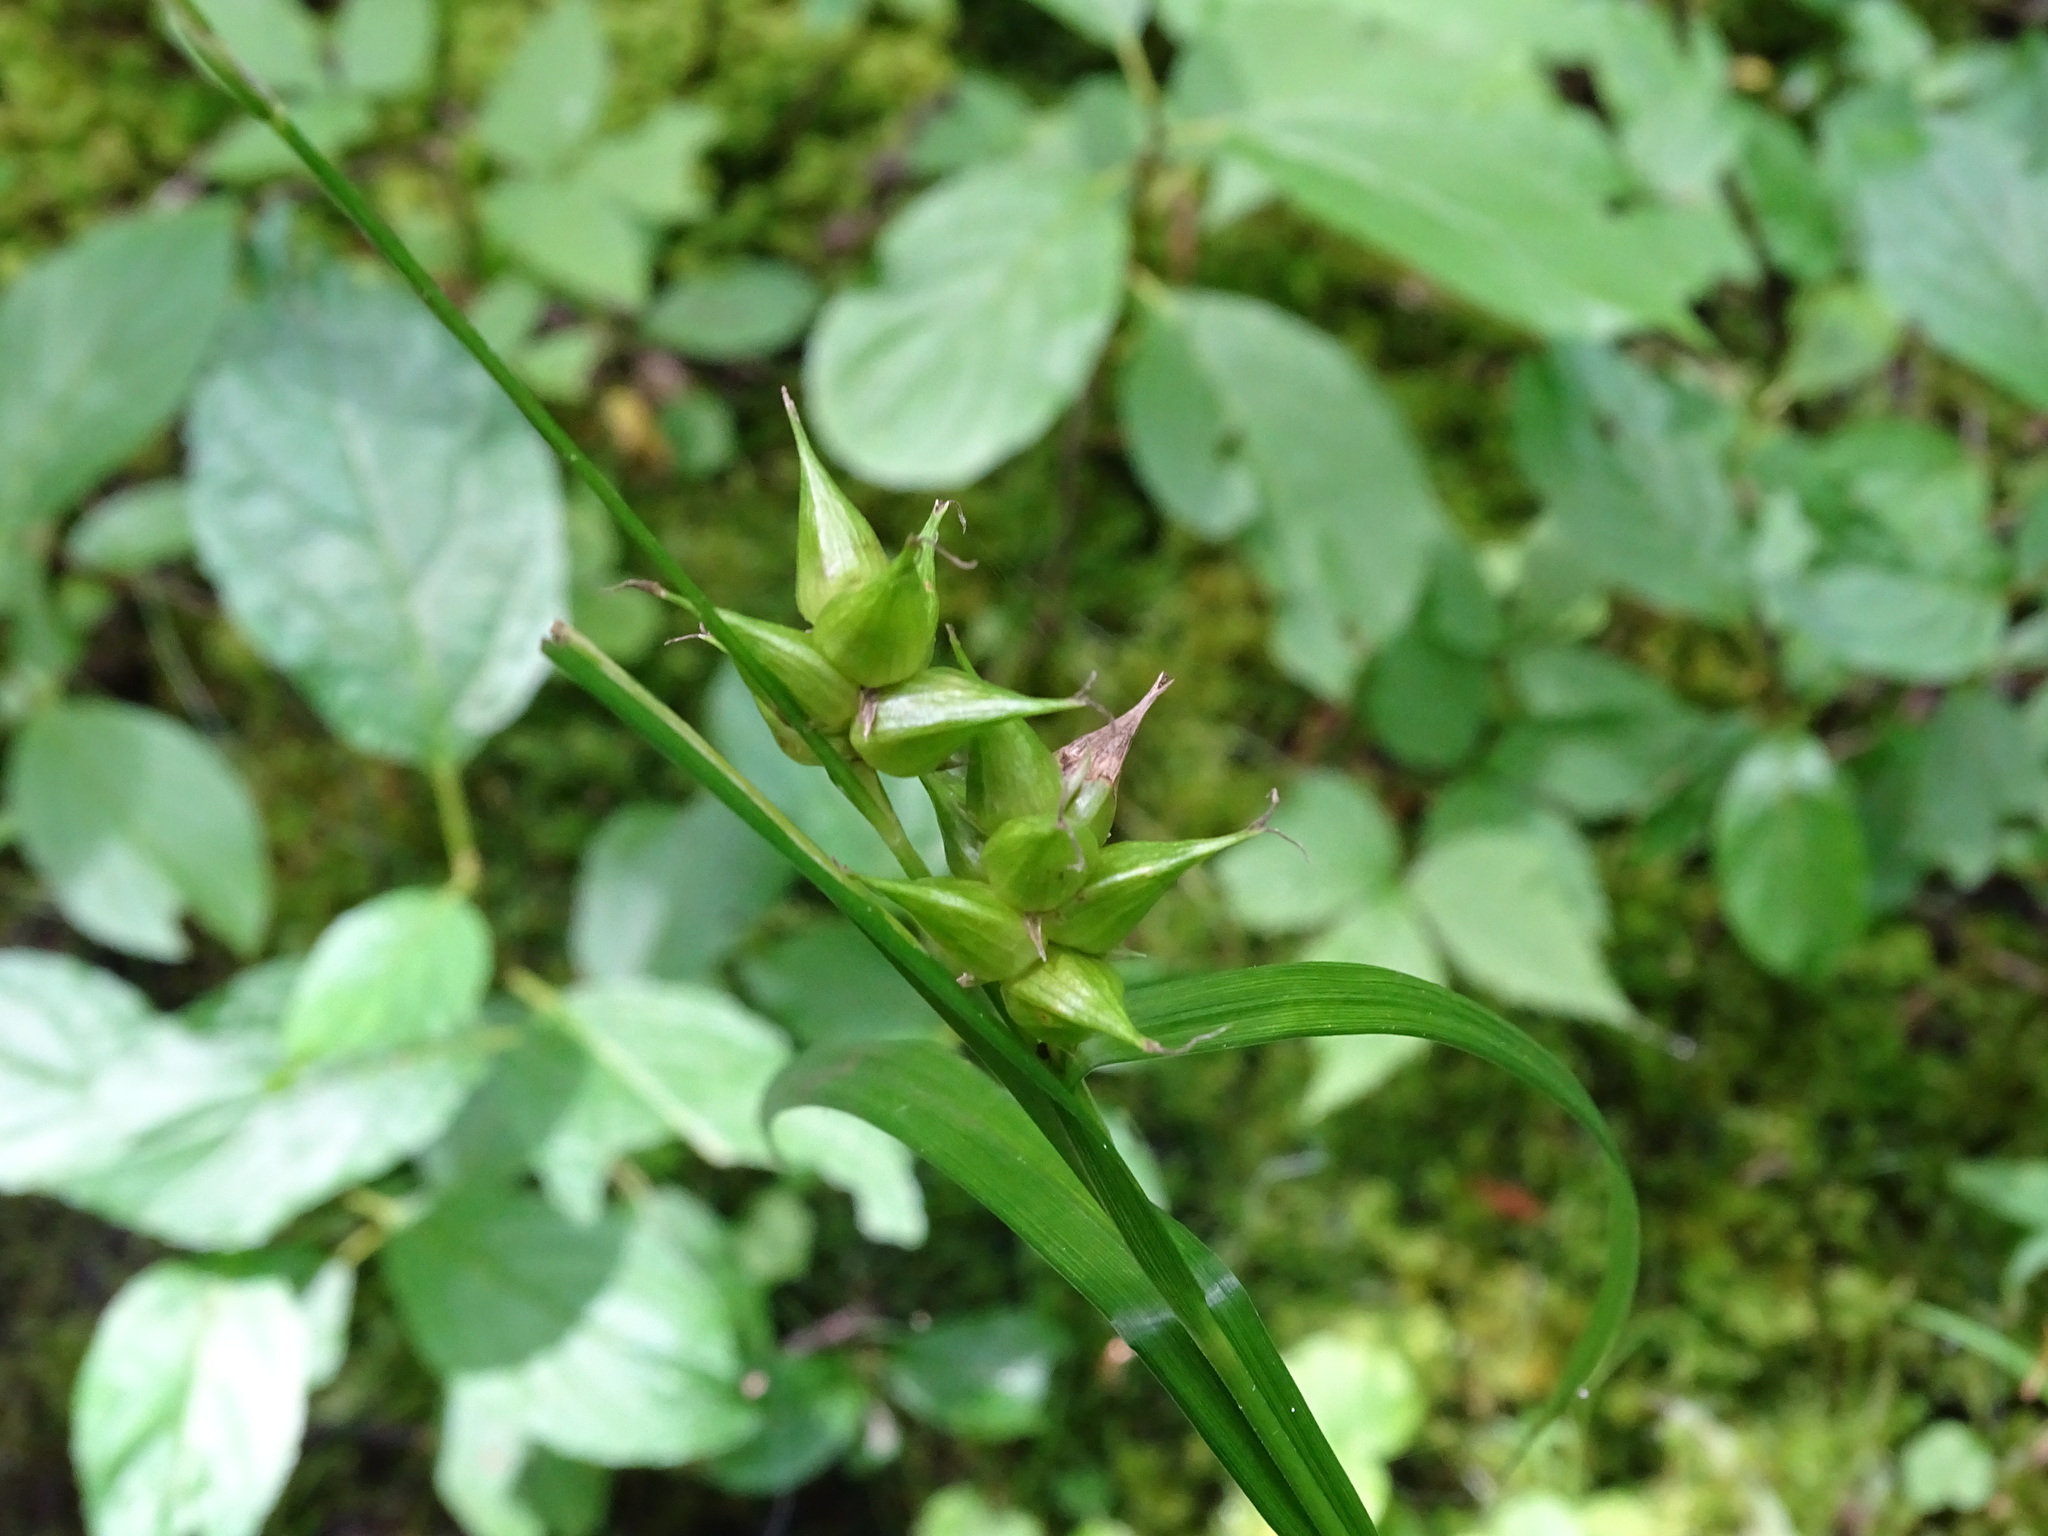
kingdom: Plantae
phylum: Tracheophyta
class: Liliopsida
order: Poales
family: Cyperaceae
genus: Carex
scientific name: Carex intumescens
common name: Greater bladder sedge
